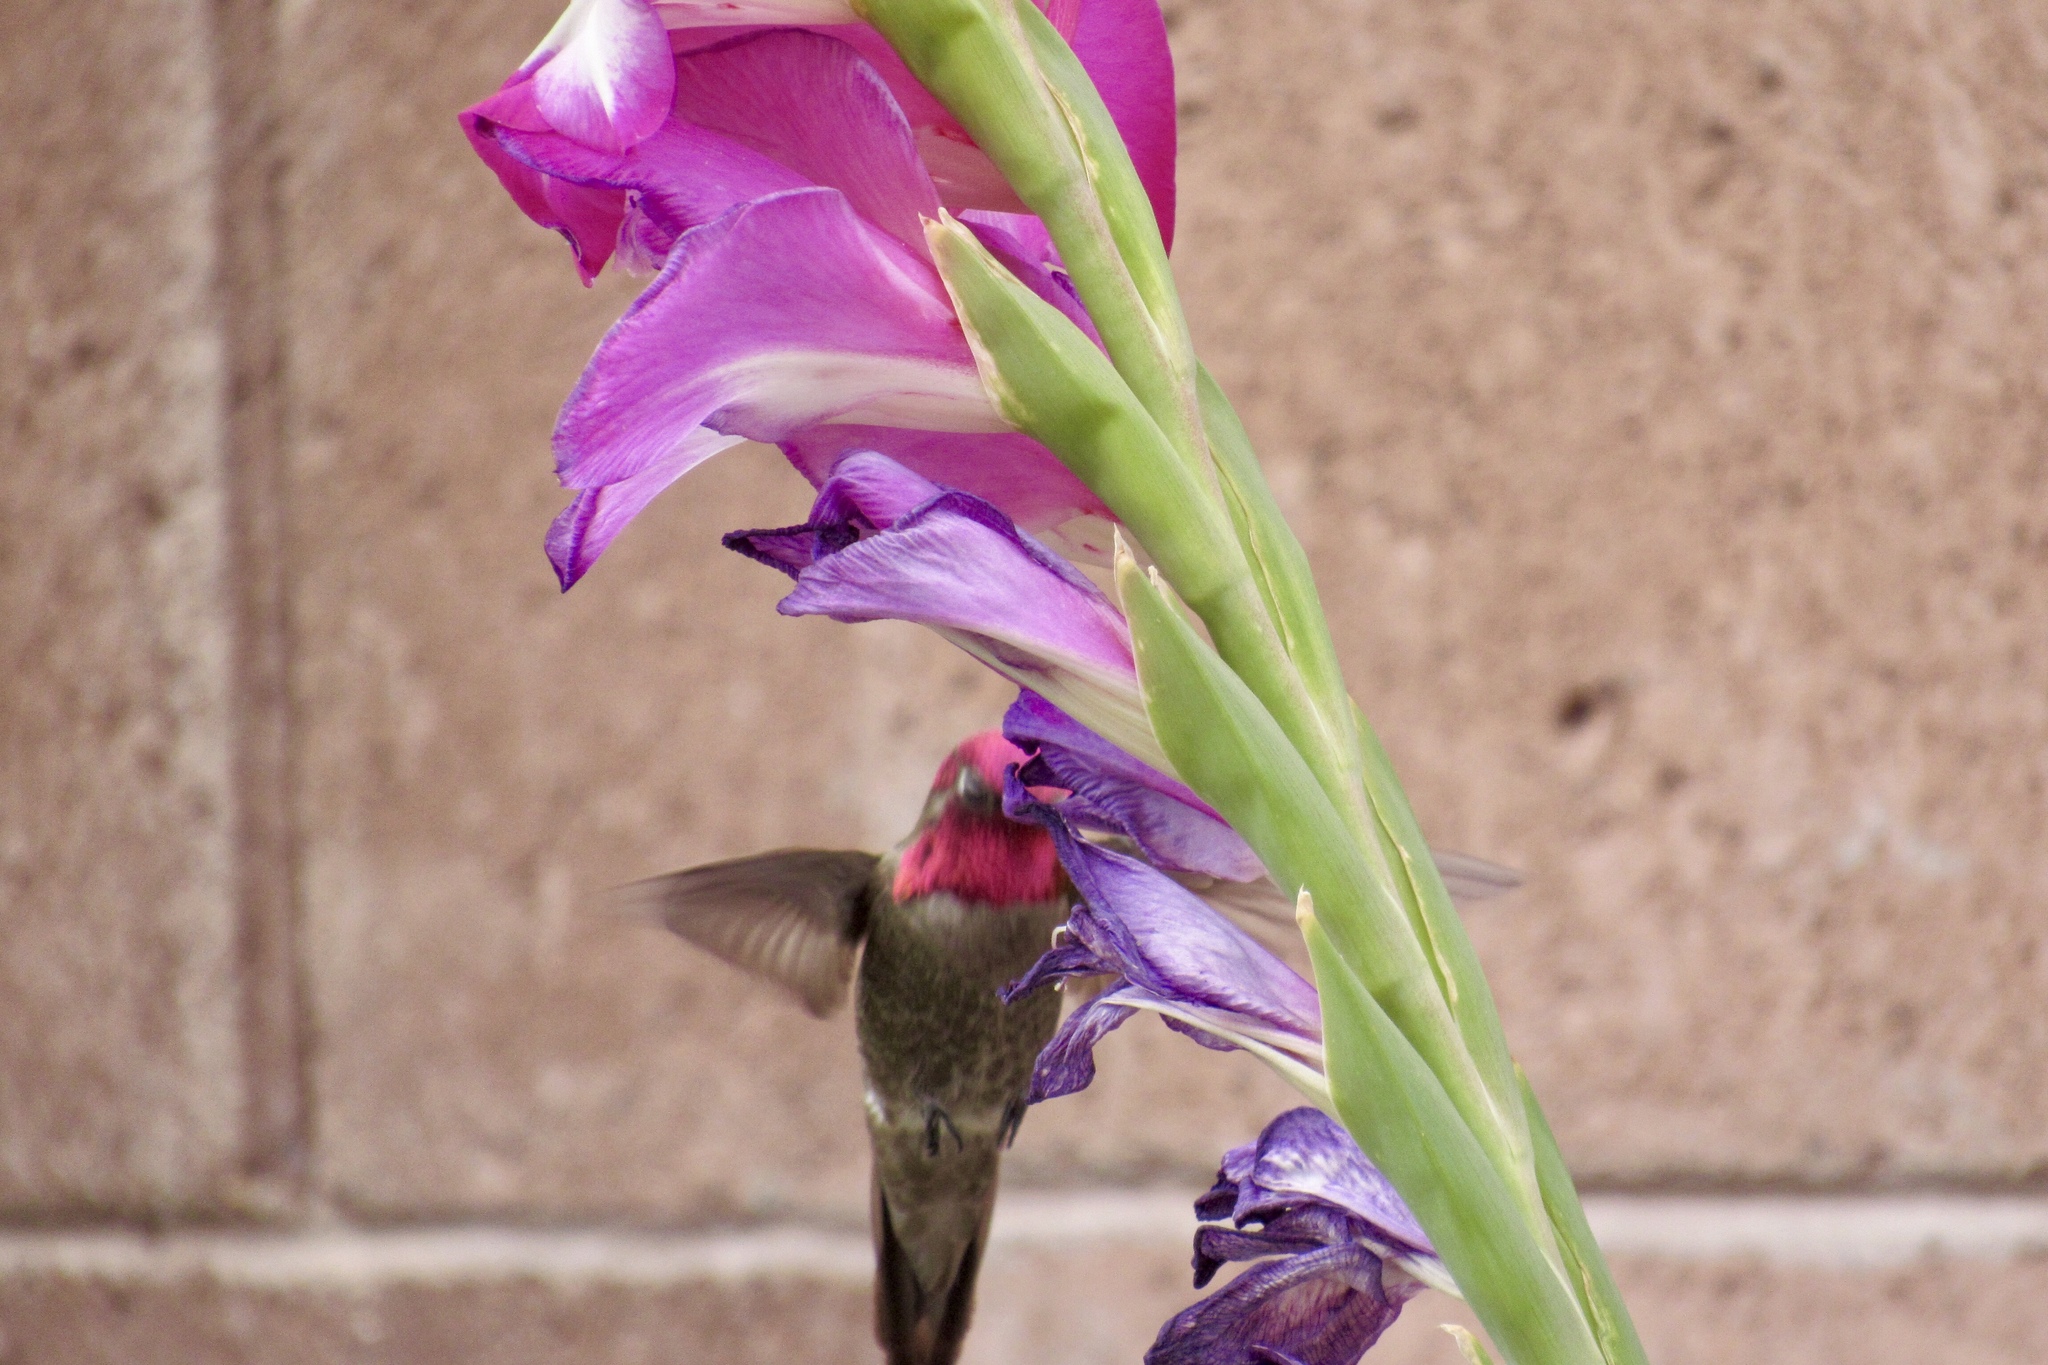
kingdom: Animalia
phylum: Chordata
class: Aves
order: Apodiformes
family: Trochilidae
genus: Calypte
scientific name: Calypte anna
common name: Anna's hummingbird
